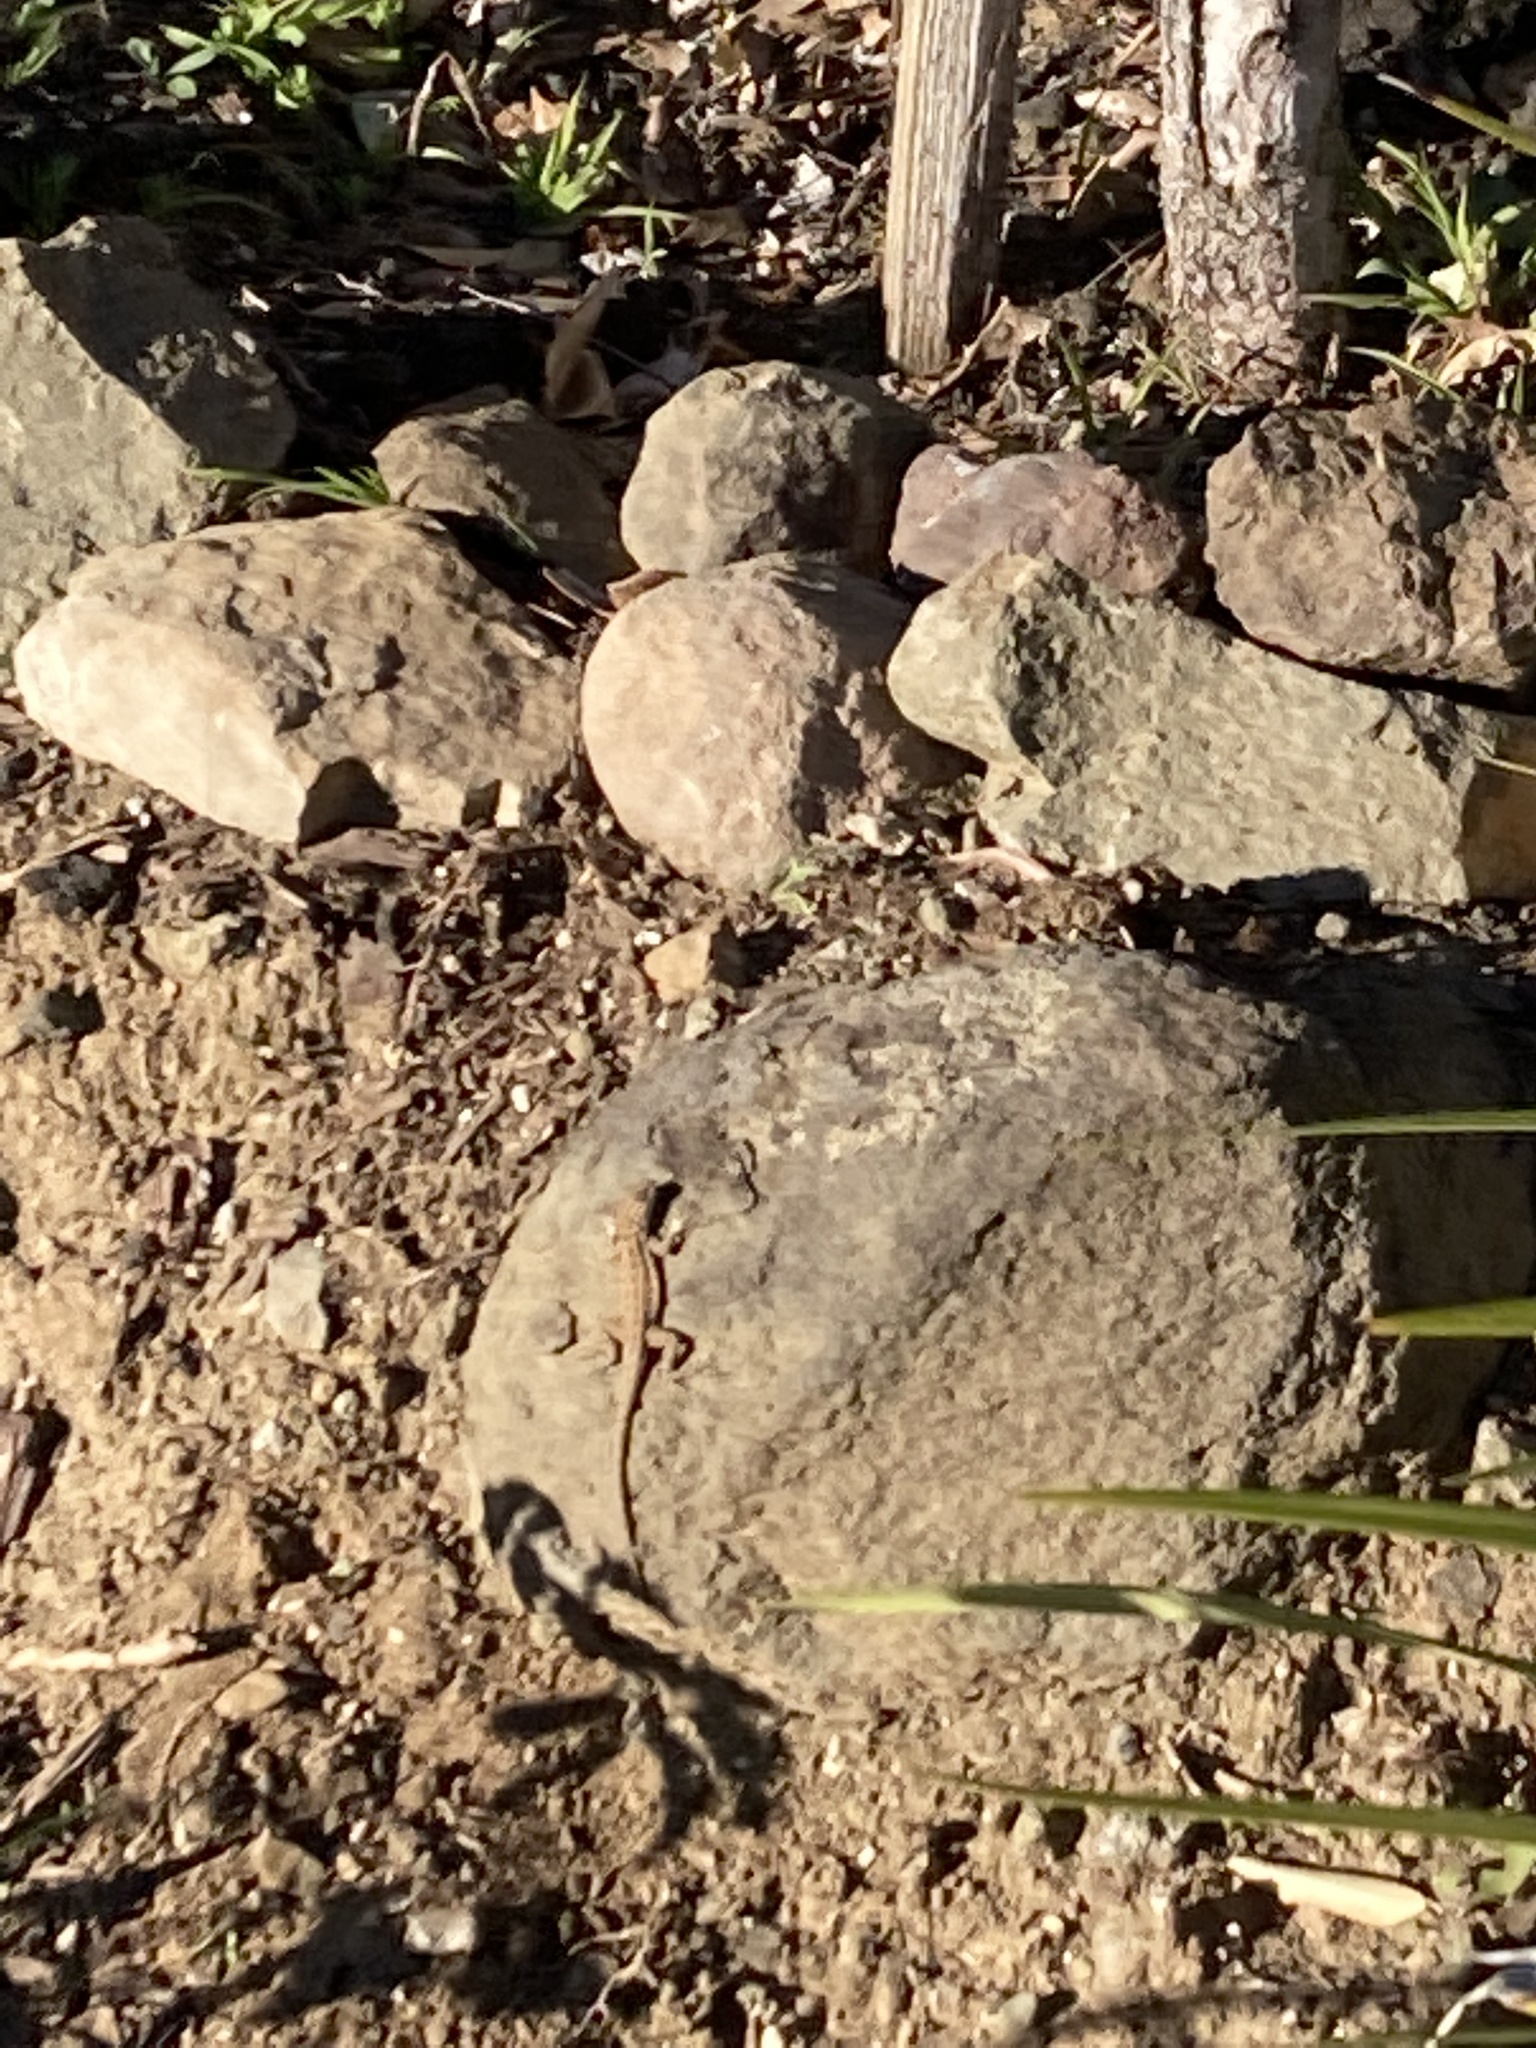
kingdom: Animalia
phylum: Chordata
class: Squamata
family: Phrynosomatidae
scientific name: Phrynosomatidae
